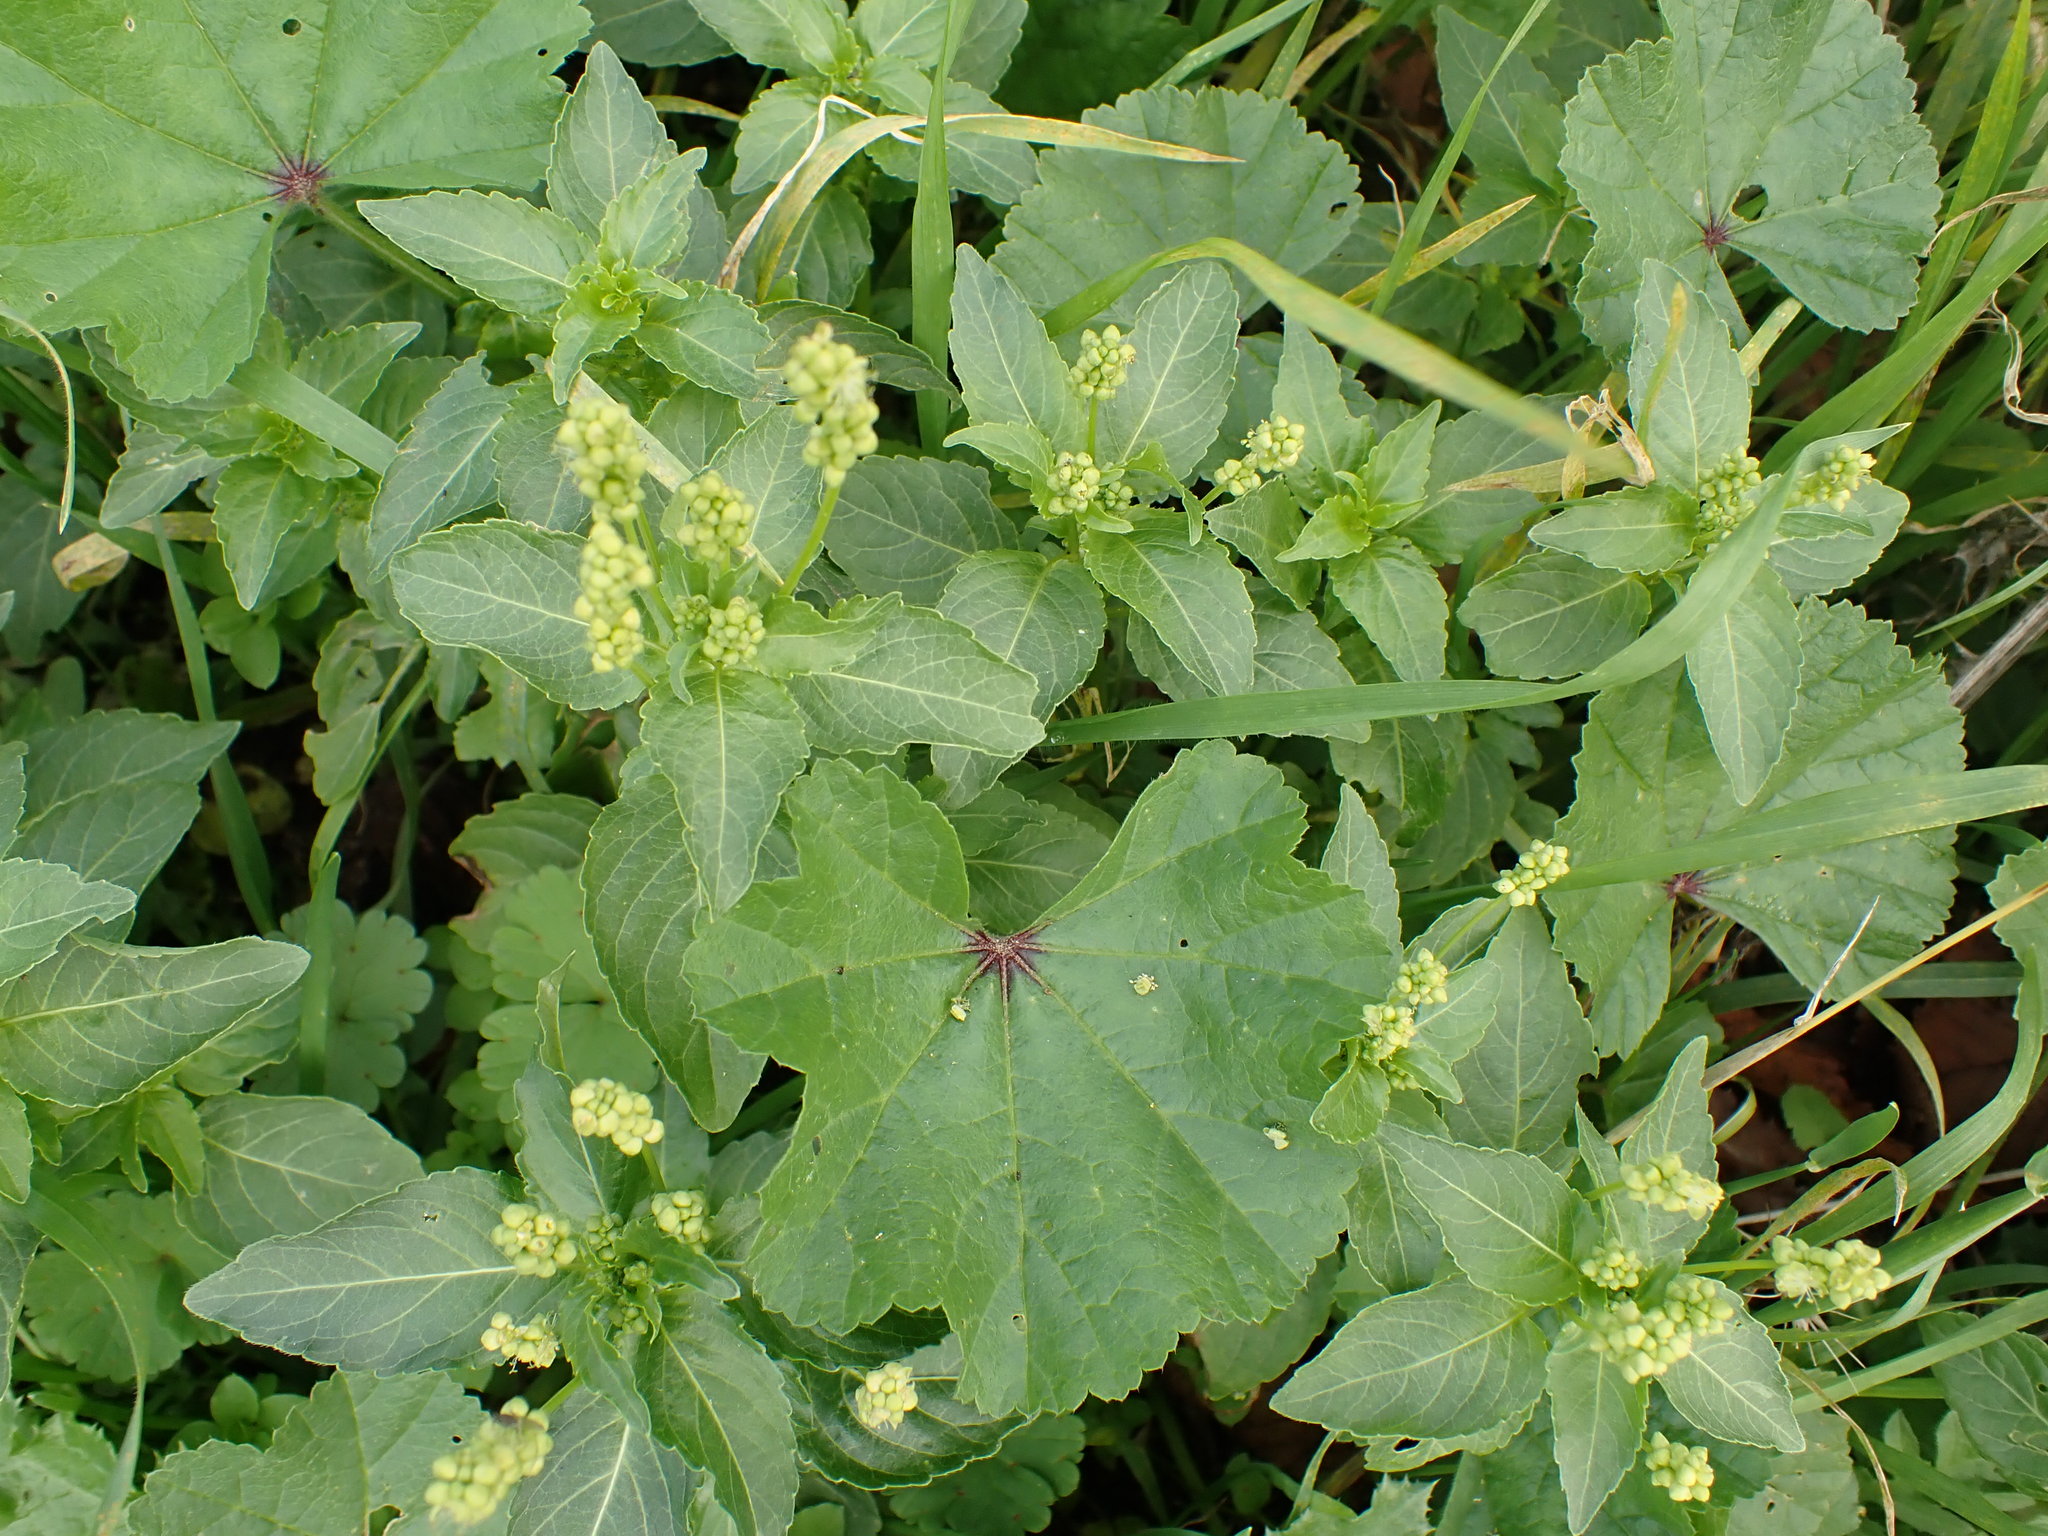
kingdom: Plantae
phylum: Tracheophyta
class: Magnoliopsida
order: Malpighiales
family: Euphorbiaceae
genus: Mercurialis
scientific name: Mercurialis annua
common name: Annual mercury
